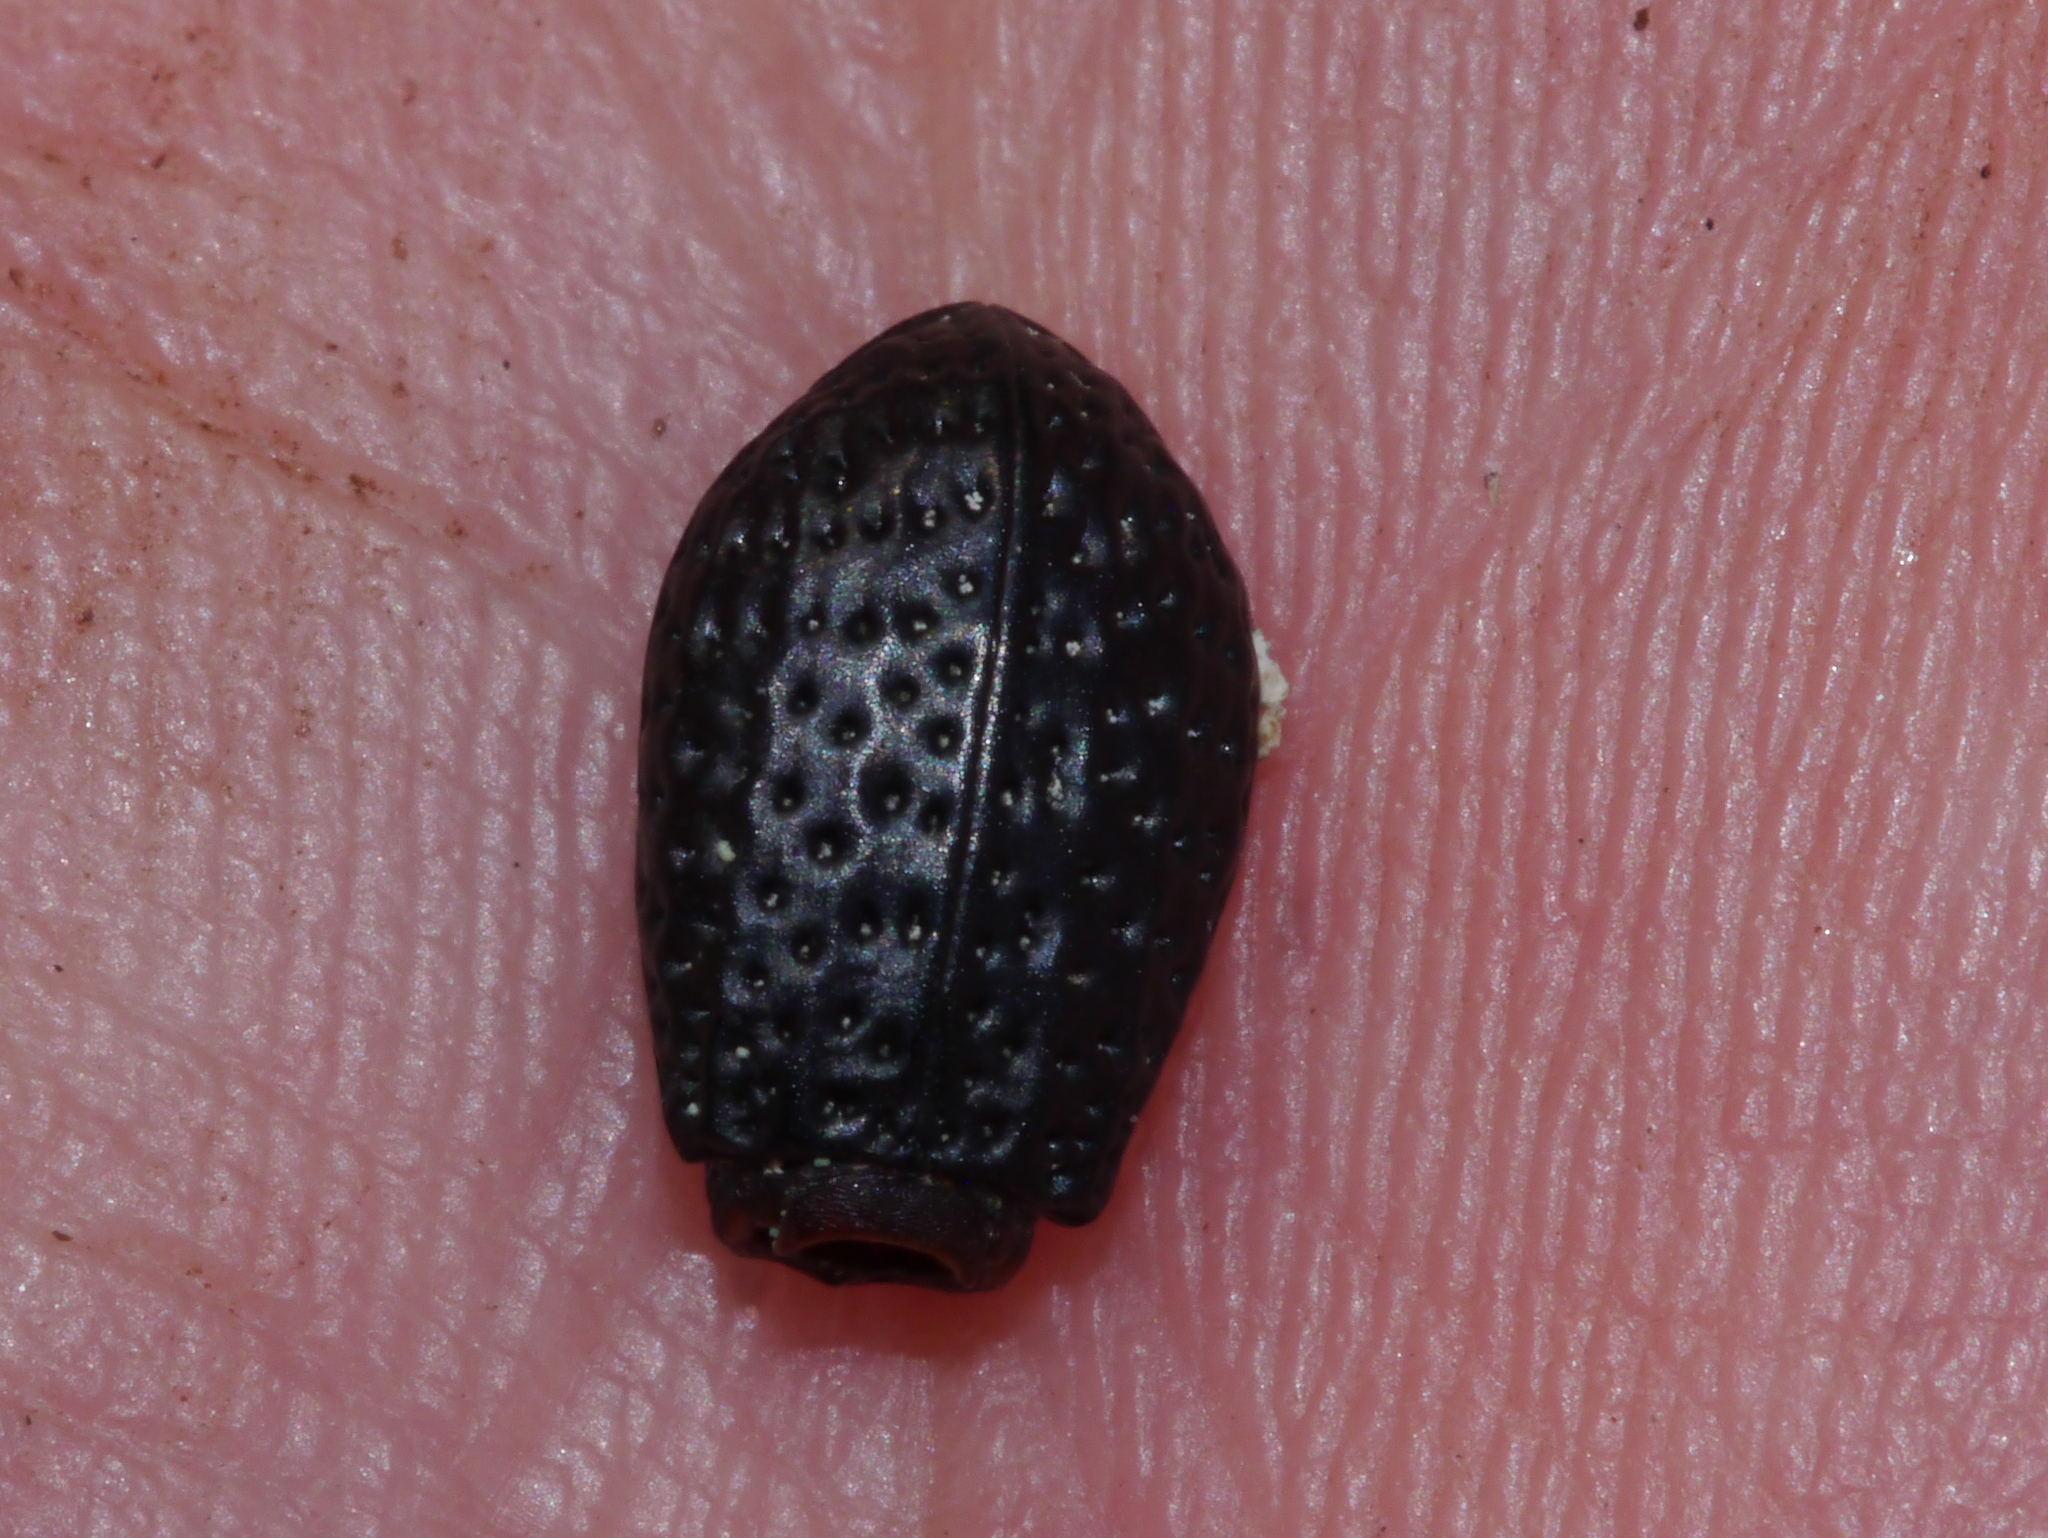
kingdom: Animalia
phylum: Arthropoda
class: Insecta
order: Coleoptera
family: Tenebrionidae
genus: Polypleurus
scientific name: Polypleurus perforatus
